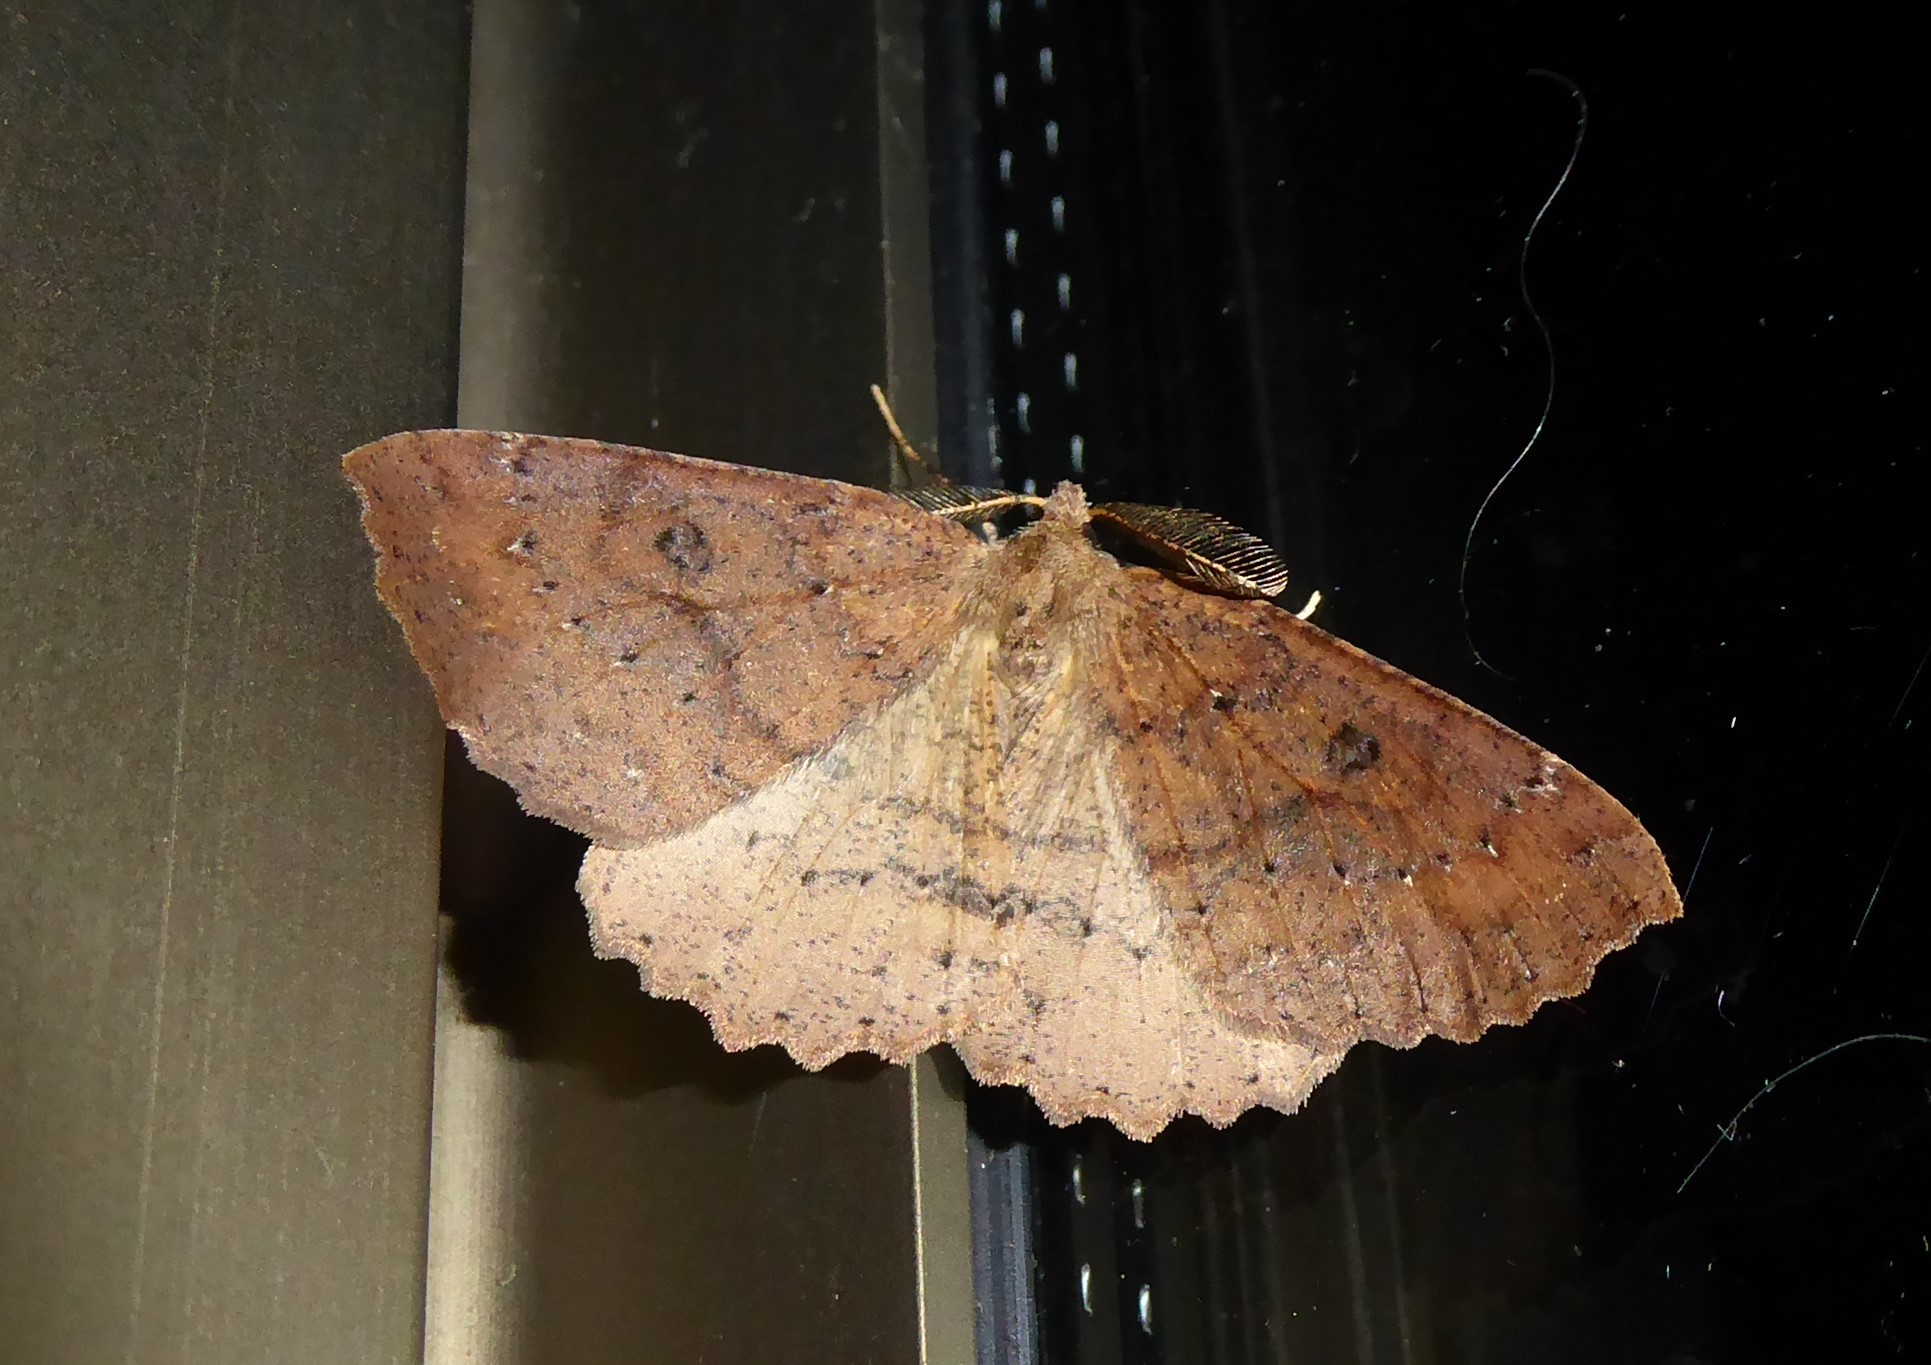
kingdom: Animalia
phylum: Arthropoda
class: Insecta
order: Lepidoptera
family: Geometridae
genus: Cleora
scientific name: Cleora scriptaria
